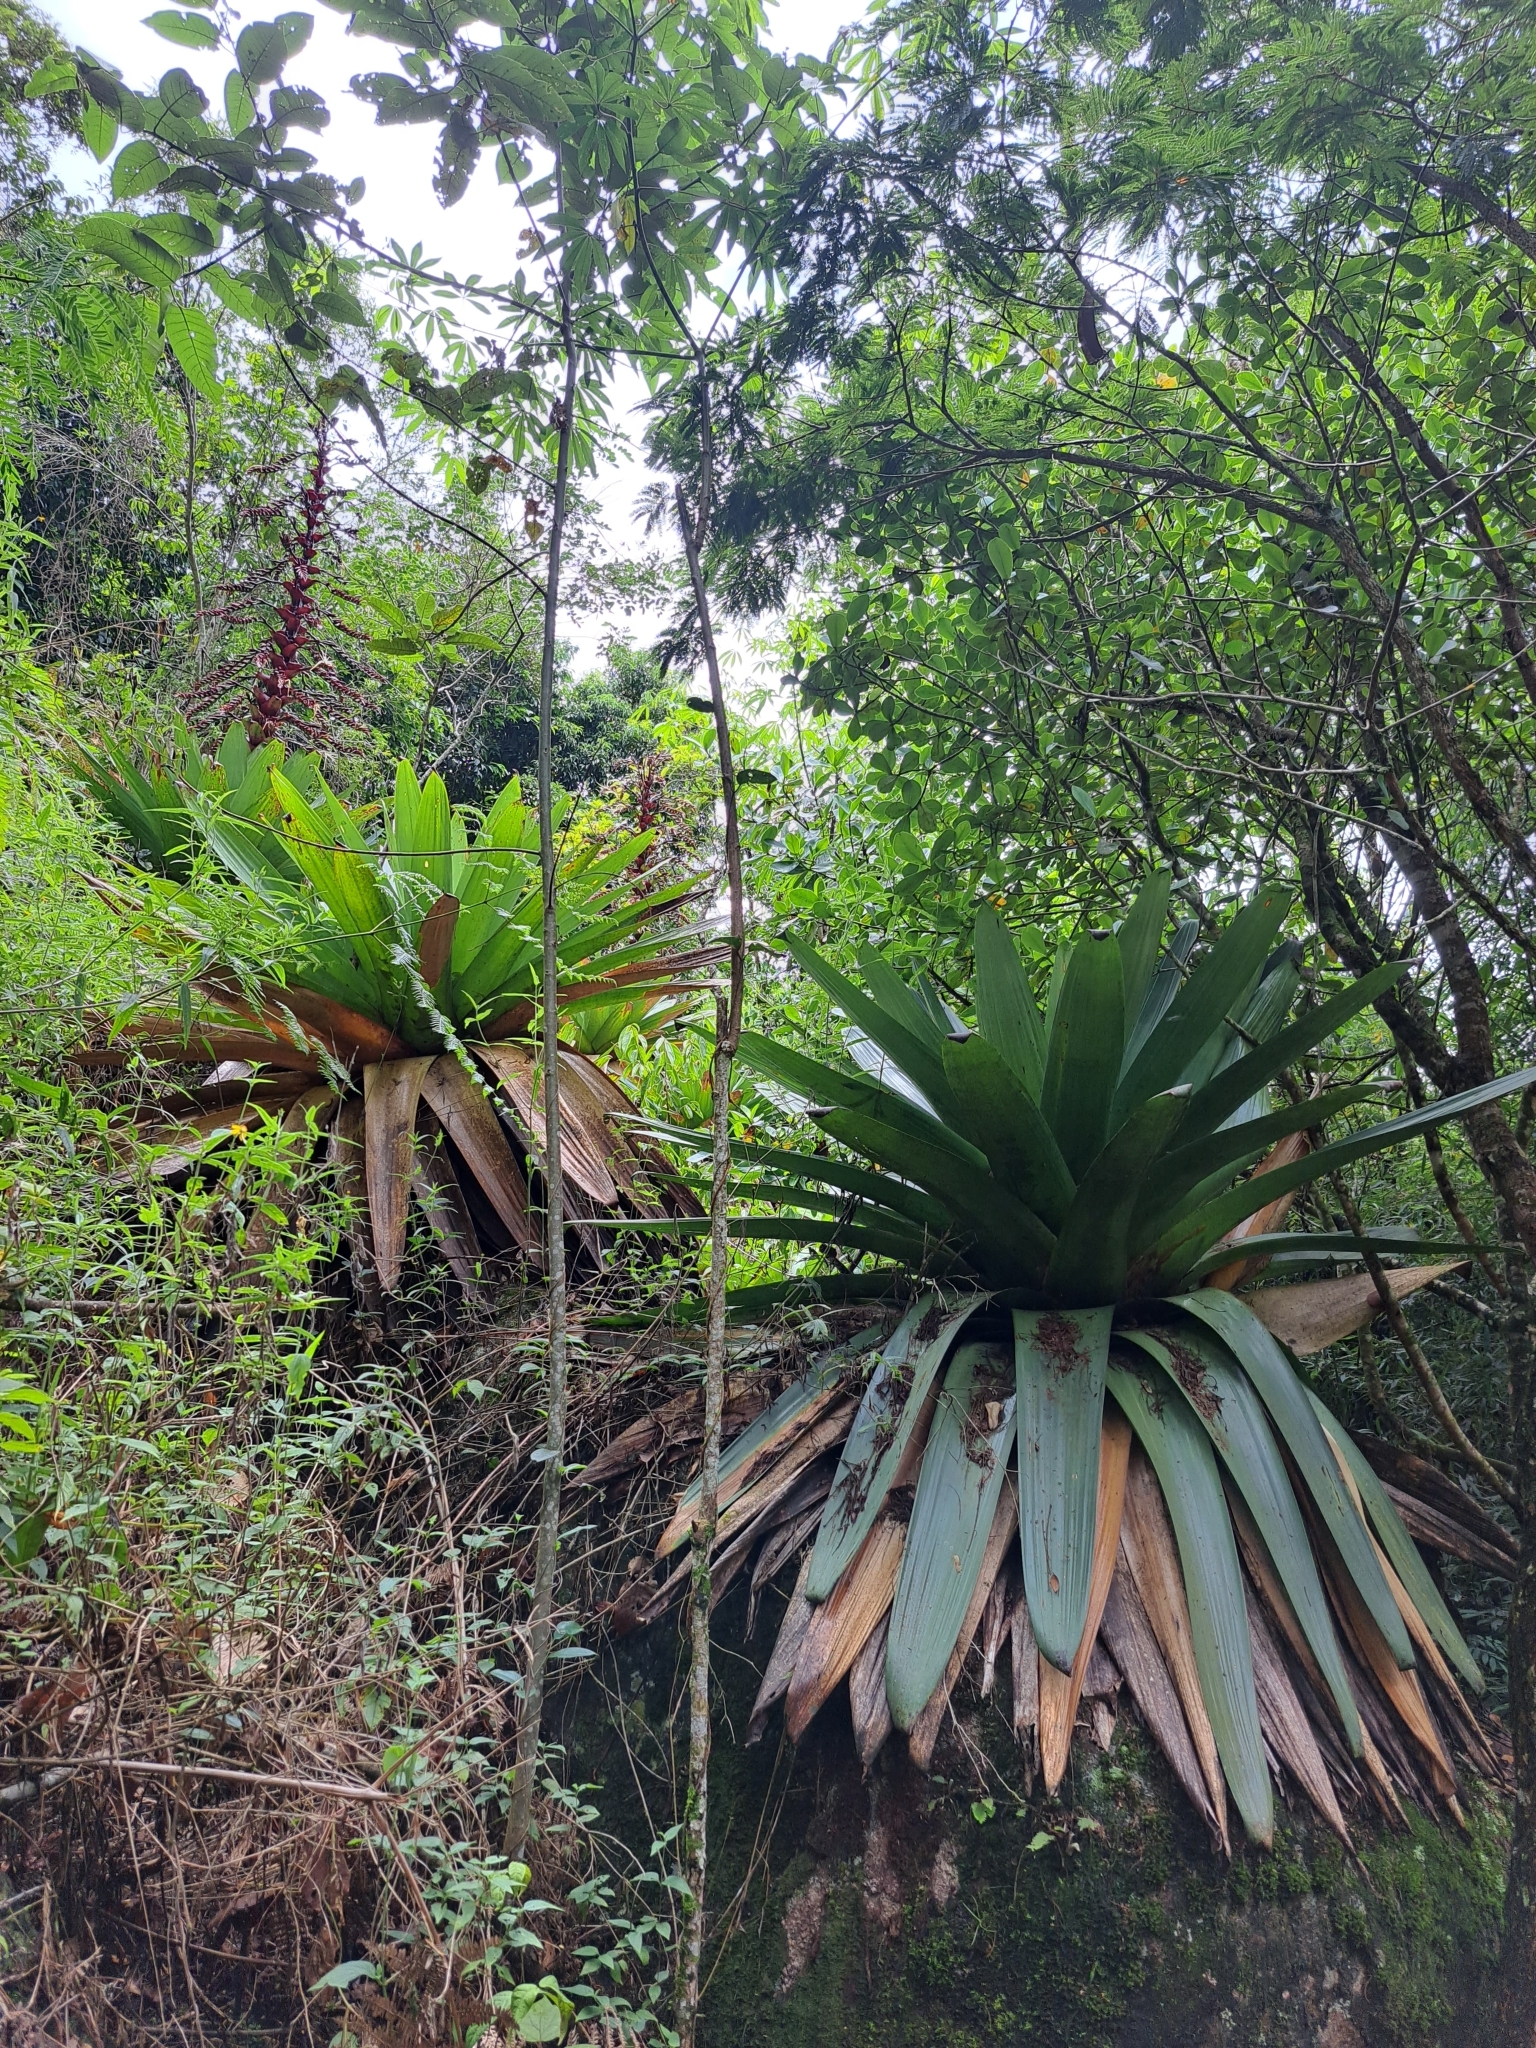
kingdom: Plantae
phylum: Tracheophyta
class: Liliopsida
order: Poales
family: Bromeliaceae
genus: Alcantarea
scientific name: Alcantarea imperialis
